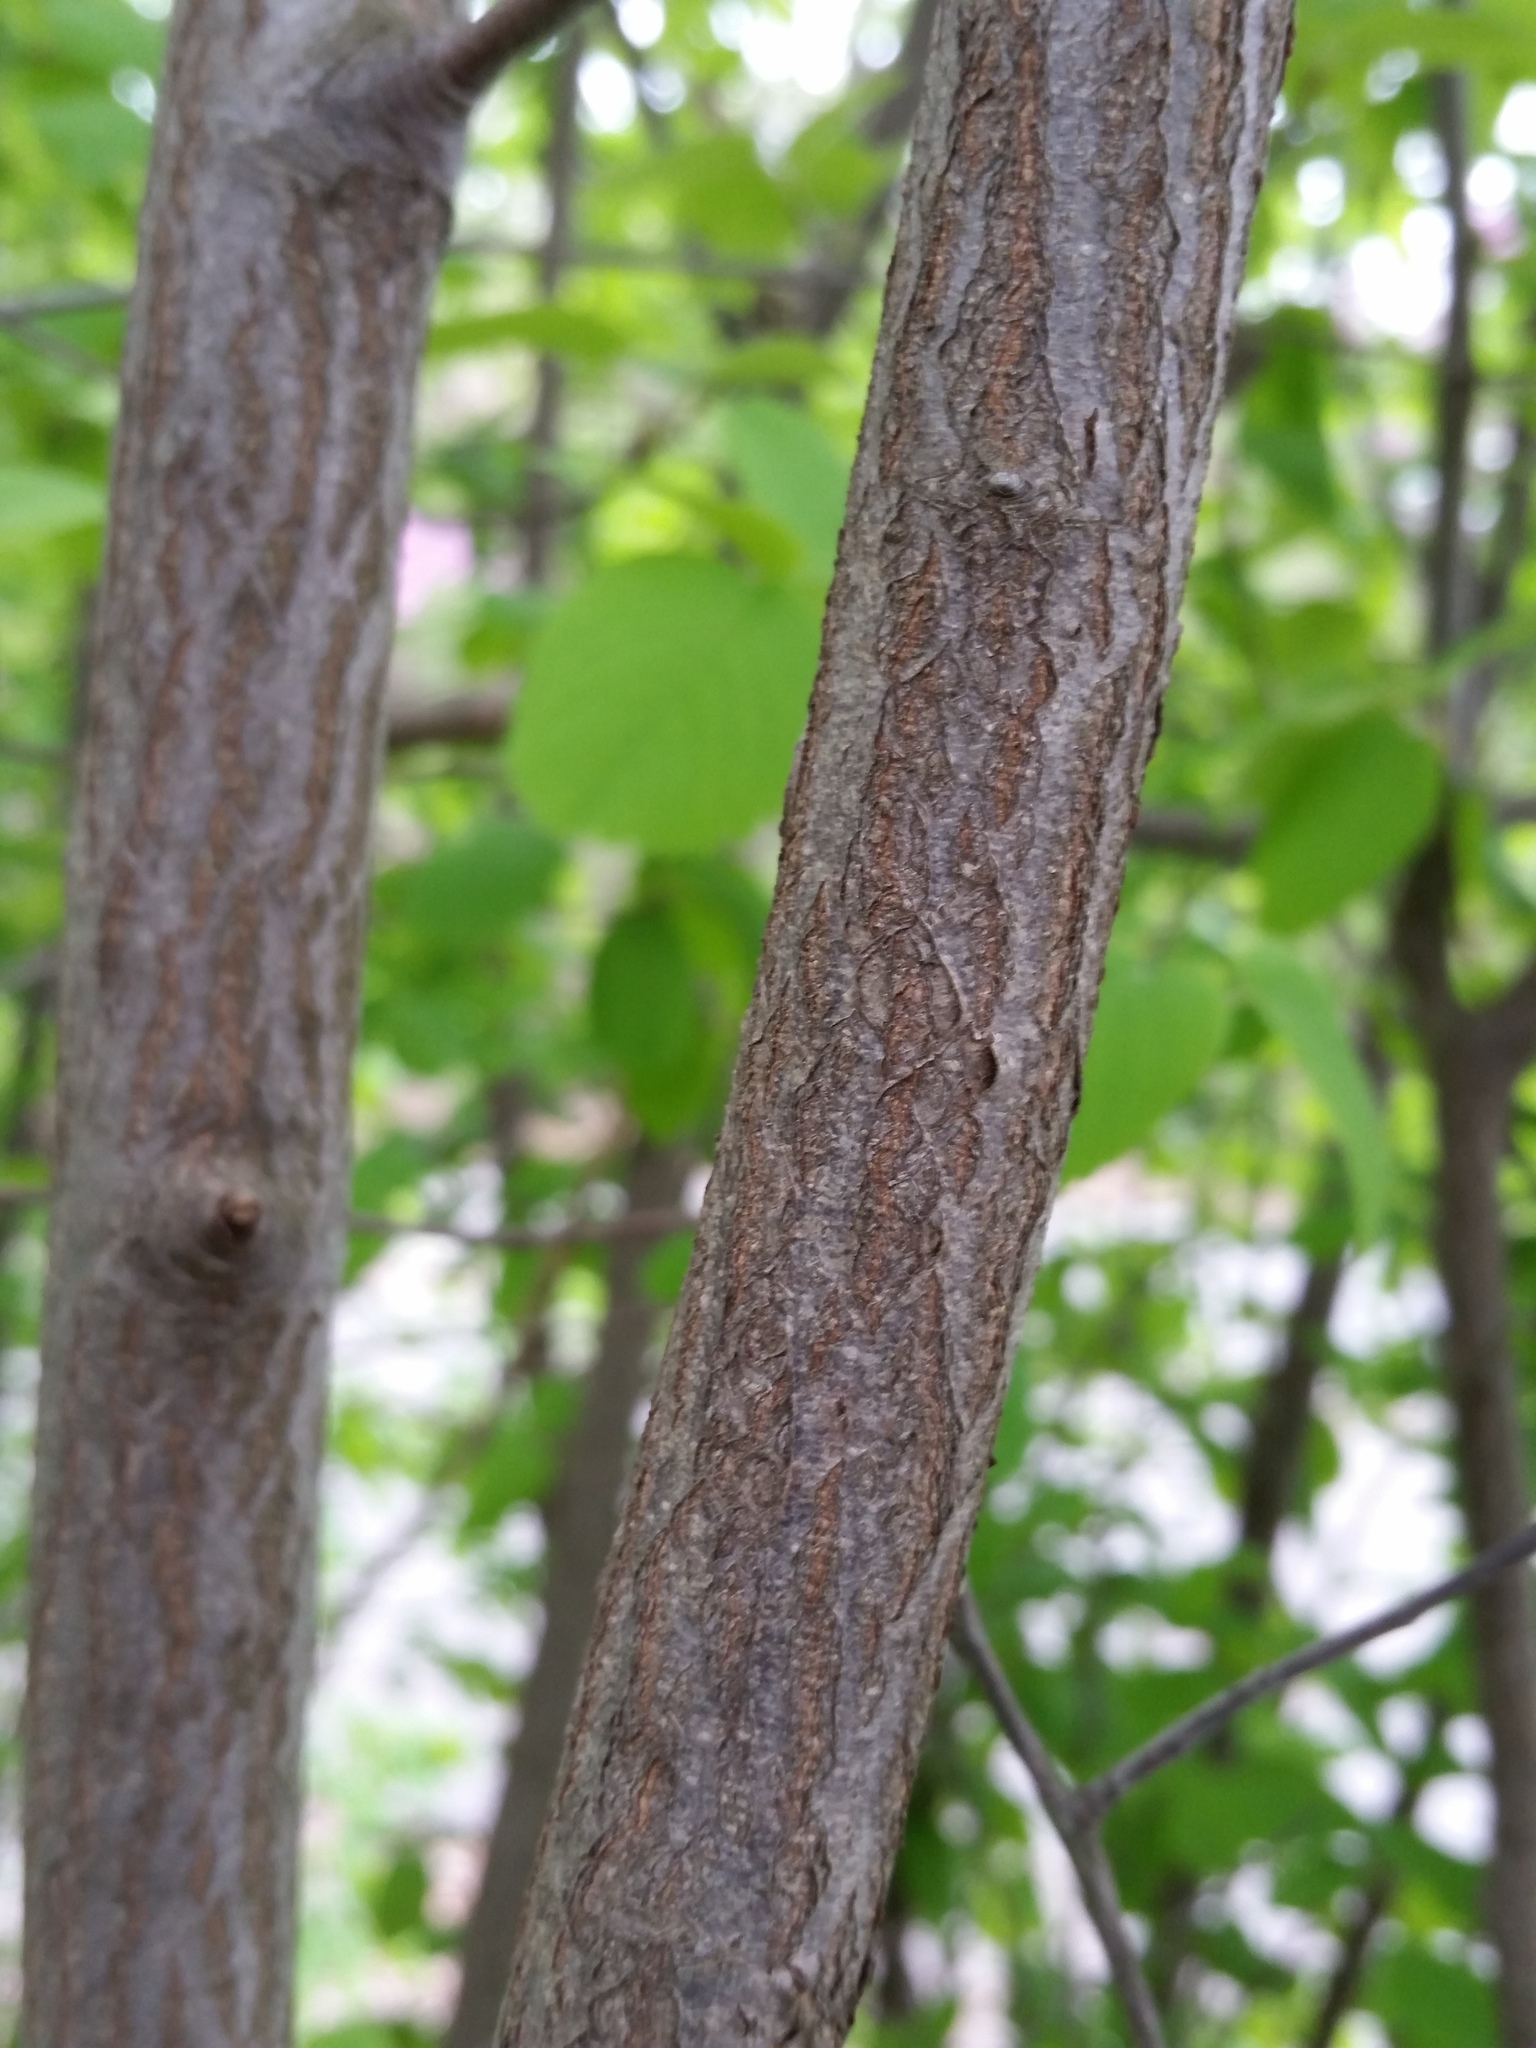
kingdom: Plantae
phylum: Tracheophyta
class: Magnoliopsida
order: Rosales
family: Rosaceae
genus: Amelanchier
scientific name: Amelanchier sanguinea
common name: Huron serviceberry
